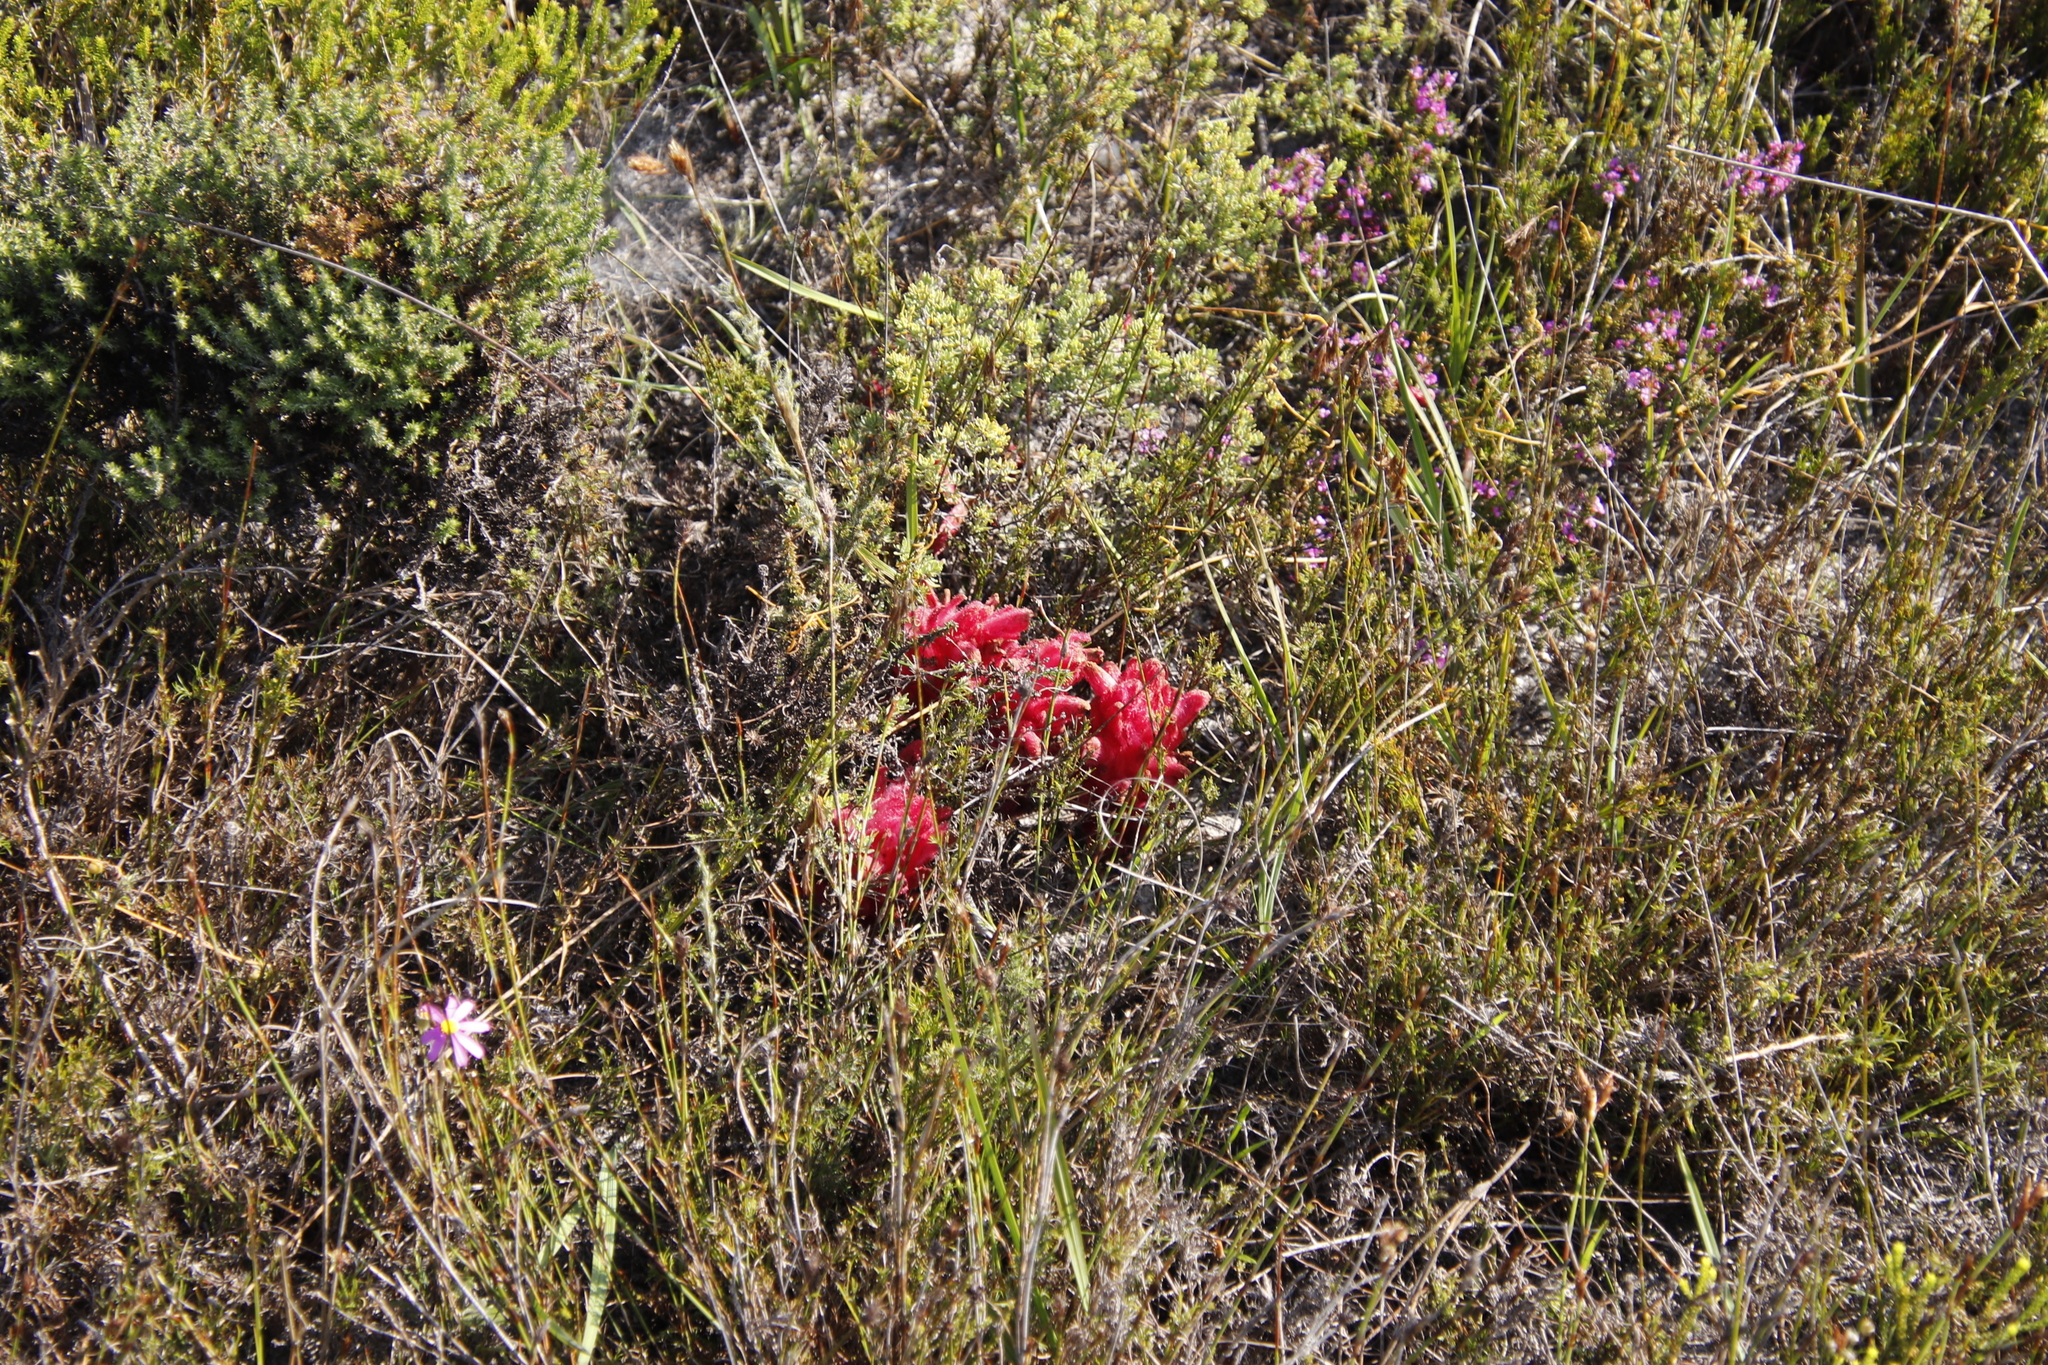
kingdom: Plantae
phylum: Tracheophyta
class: Magnoliopsida
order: Lamiales
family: Orobanchaceae
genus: Hyobanche
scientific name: Hyobanche sanguinea
